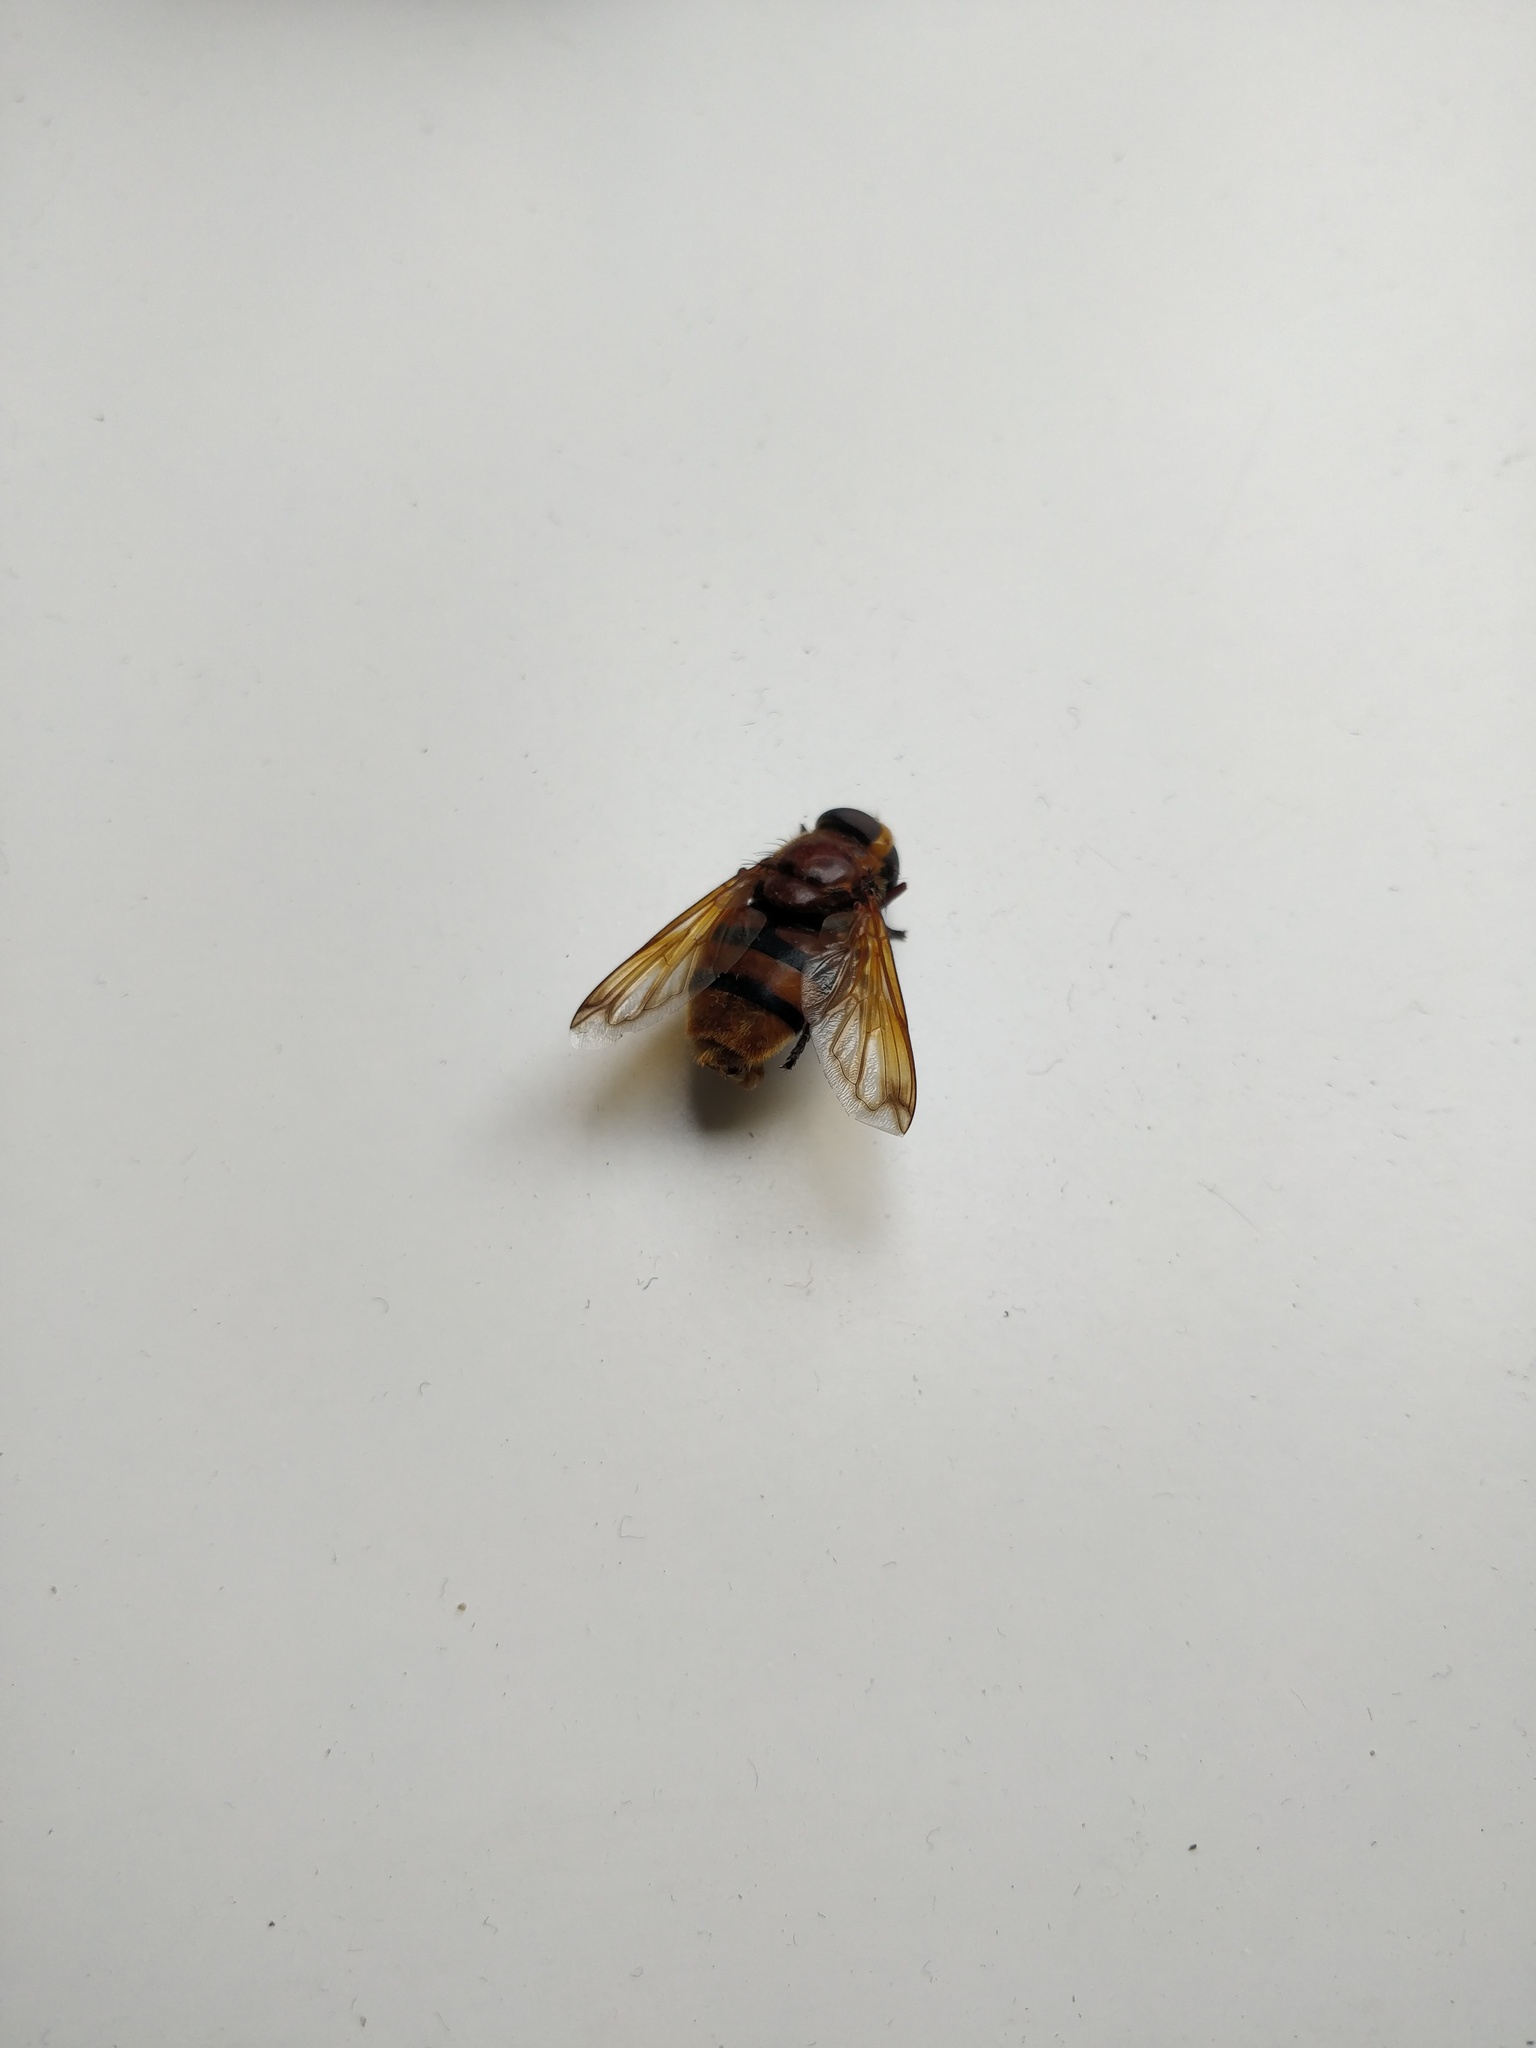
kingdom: Animalia
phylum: Arthropoda
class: Insecta
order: Diptera
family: Syrphidae
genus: Volucella
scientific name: Volucella zonaria
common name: Hornet hoverfly
